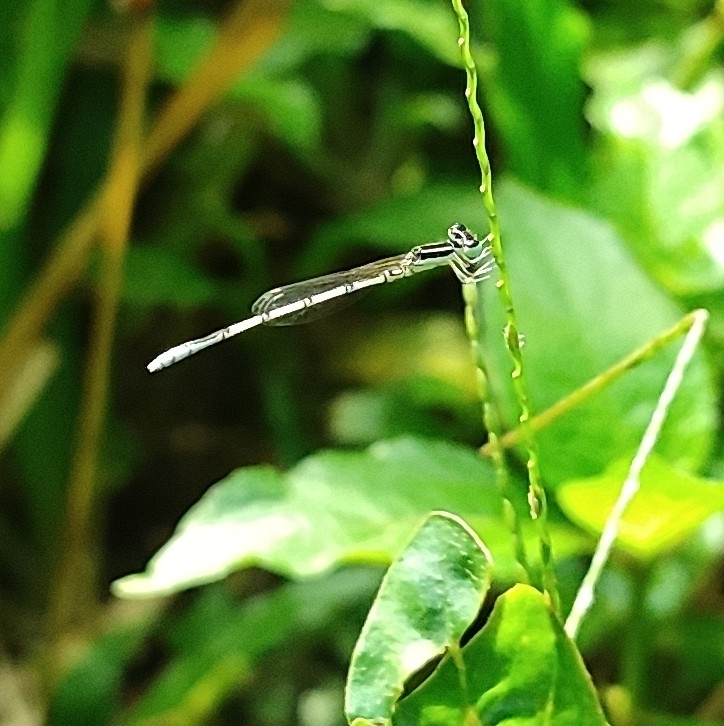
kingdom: Animalia
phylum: Arthropoda
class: Insecta
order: Odonata
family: Coenagrionidae
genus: Agriocnemis
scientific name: Agriocnemis pieris
